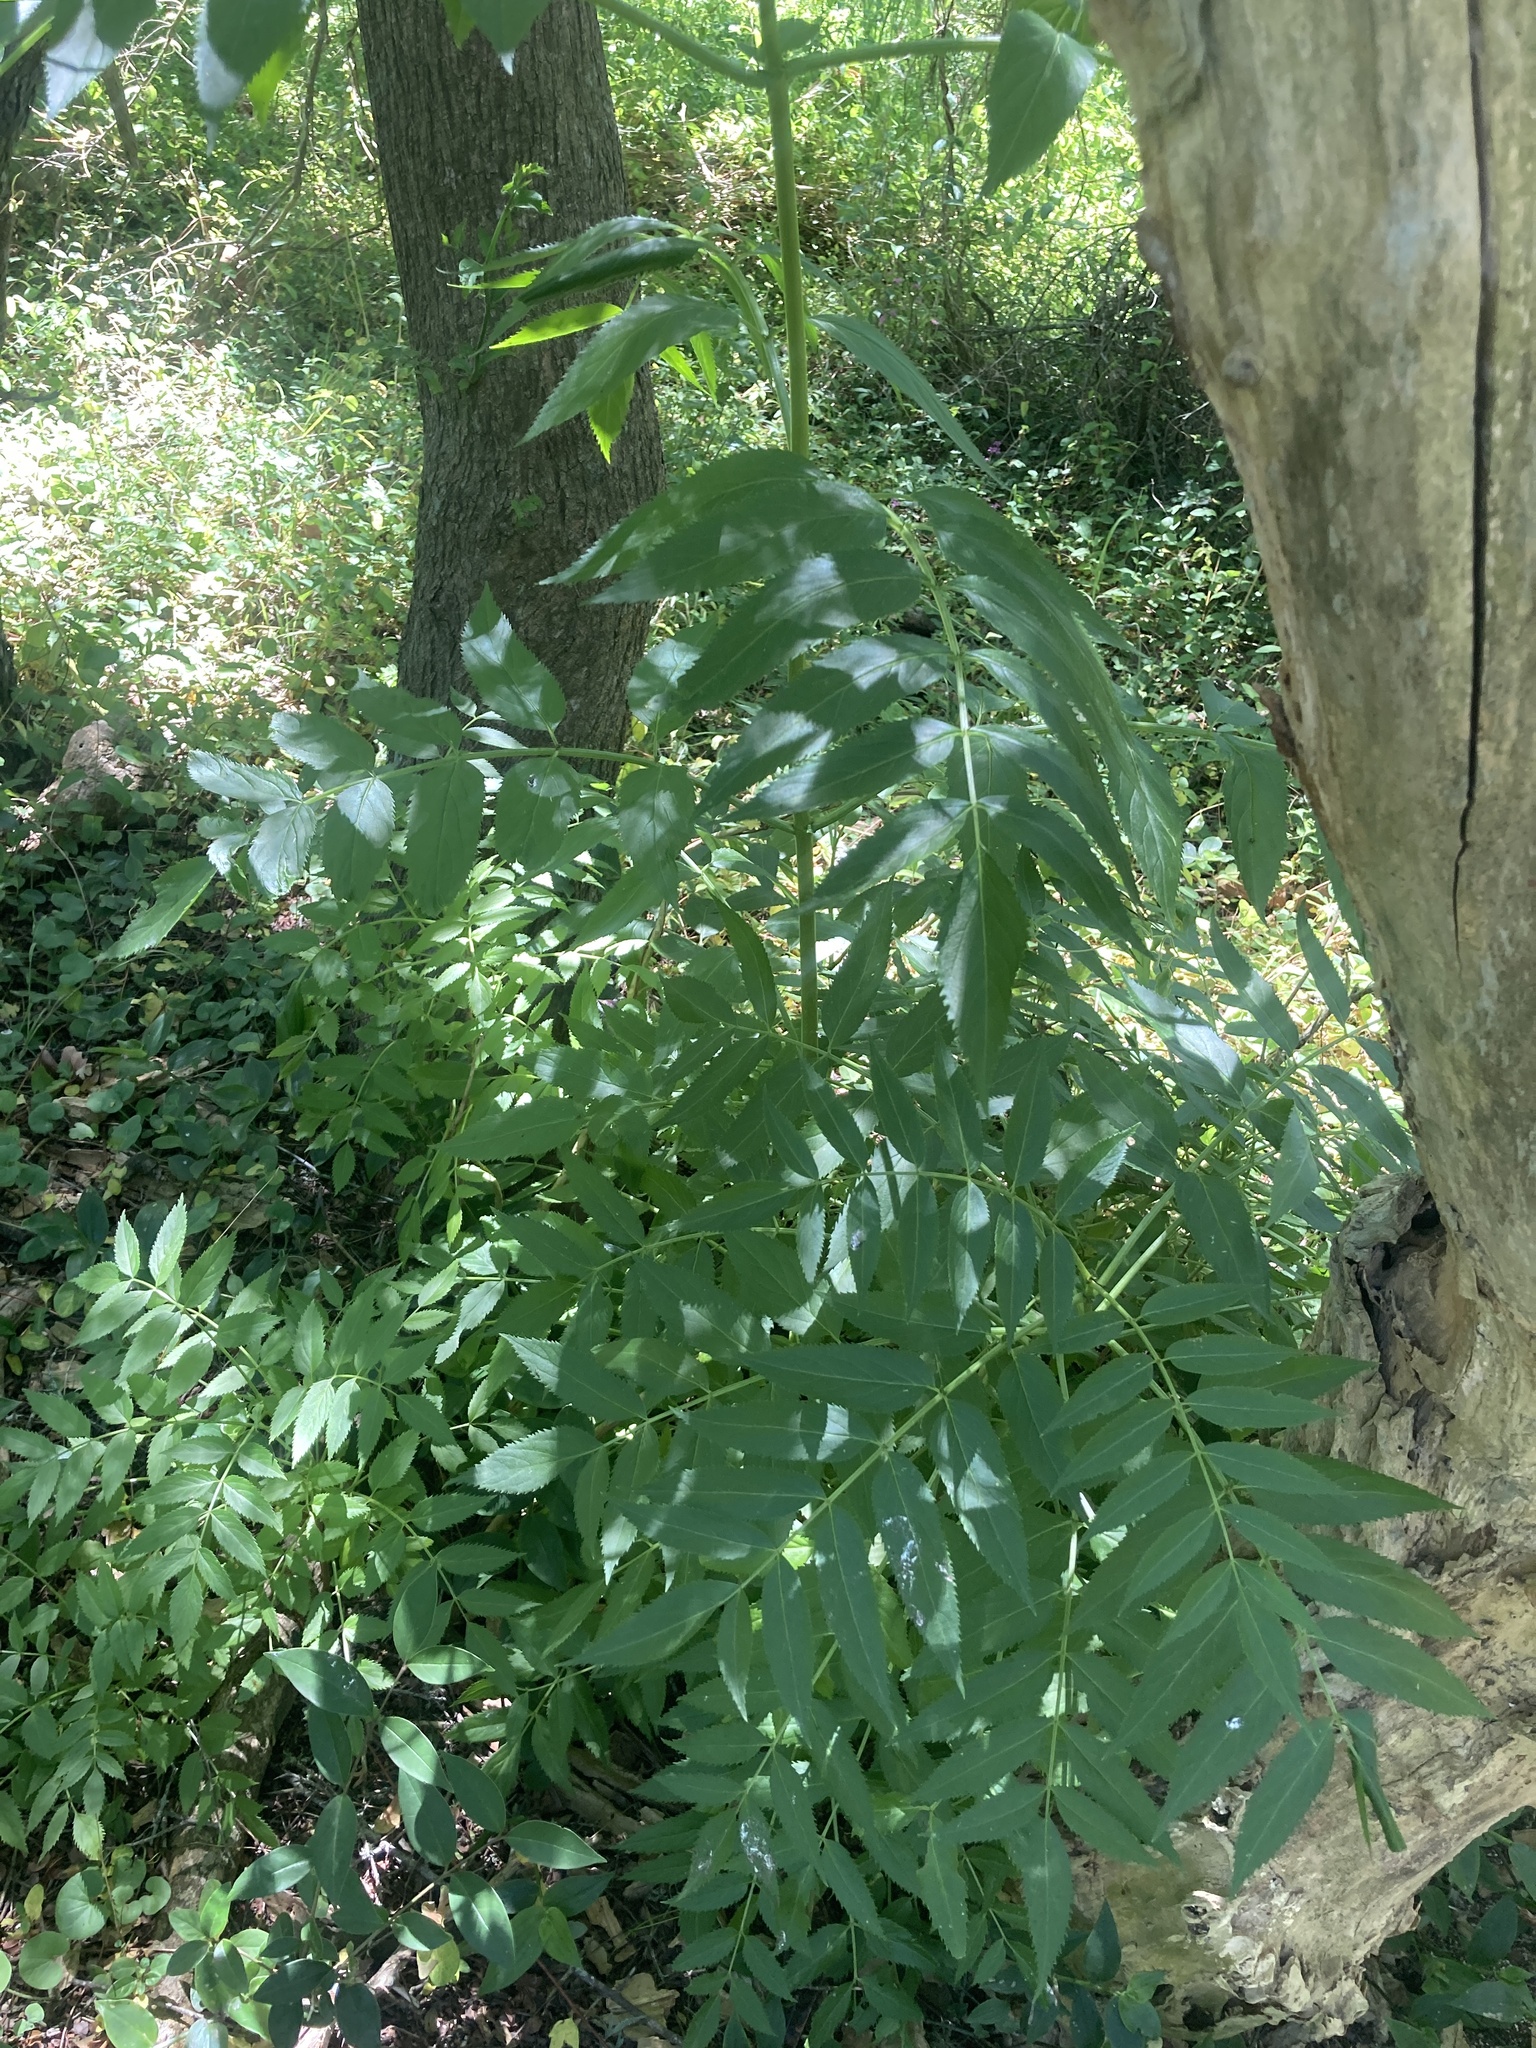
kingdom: Plantae
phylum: Tracheophyta
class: Magnoliopsida
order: Dipsacales
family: Viburnaceae
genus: Sambucus
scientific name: Sambucus australis
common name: Southern elder
